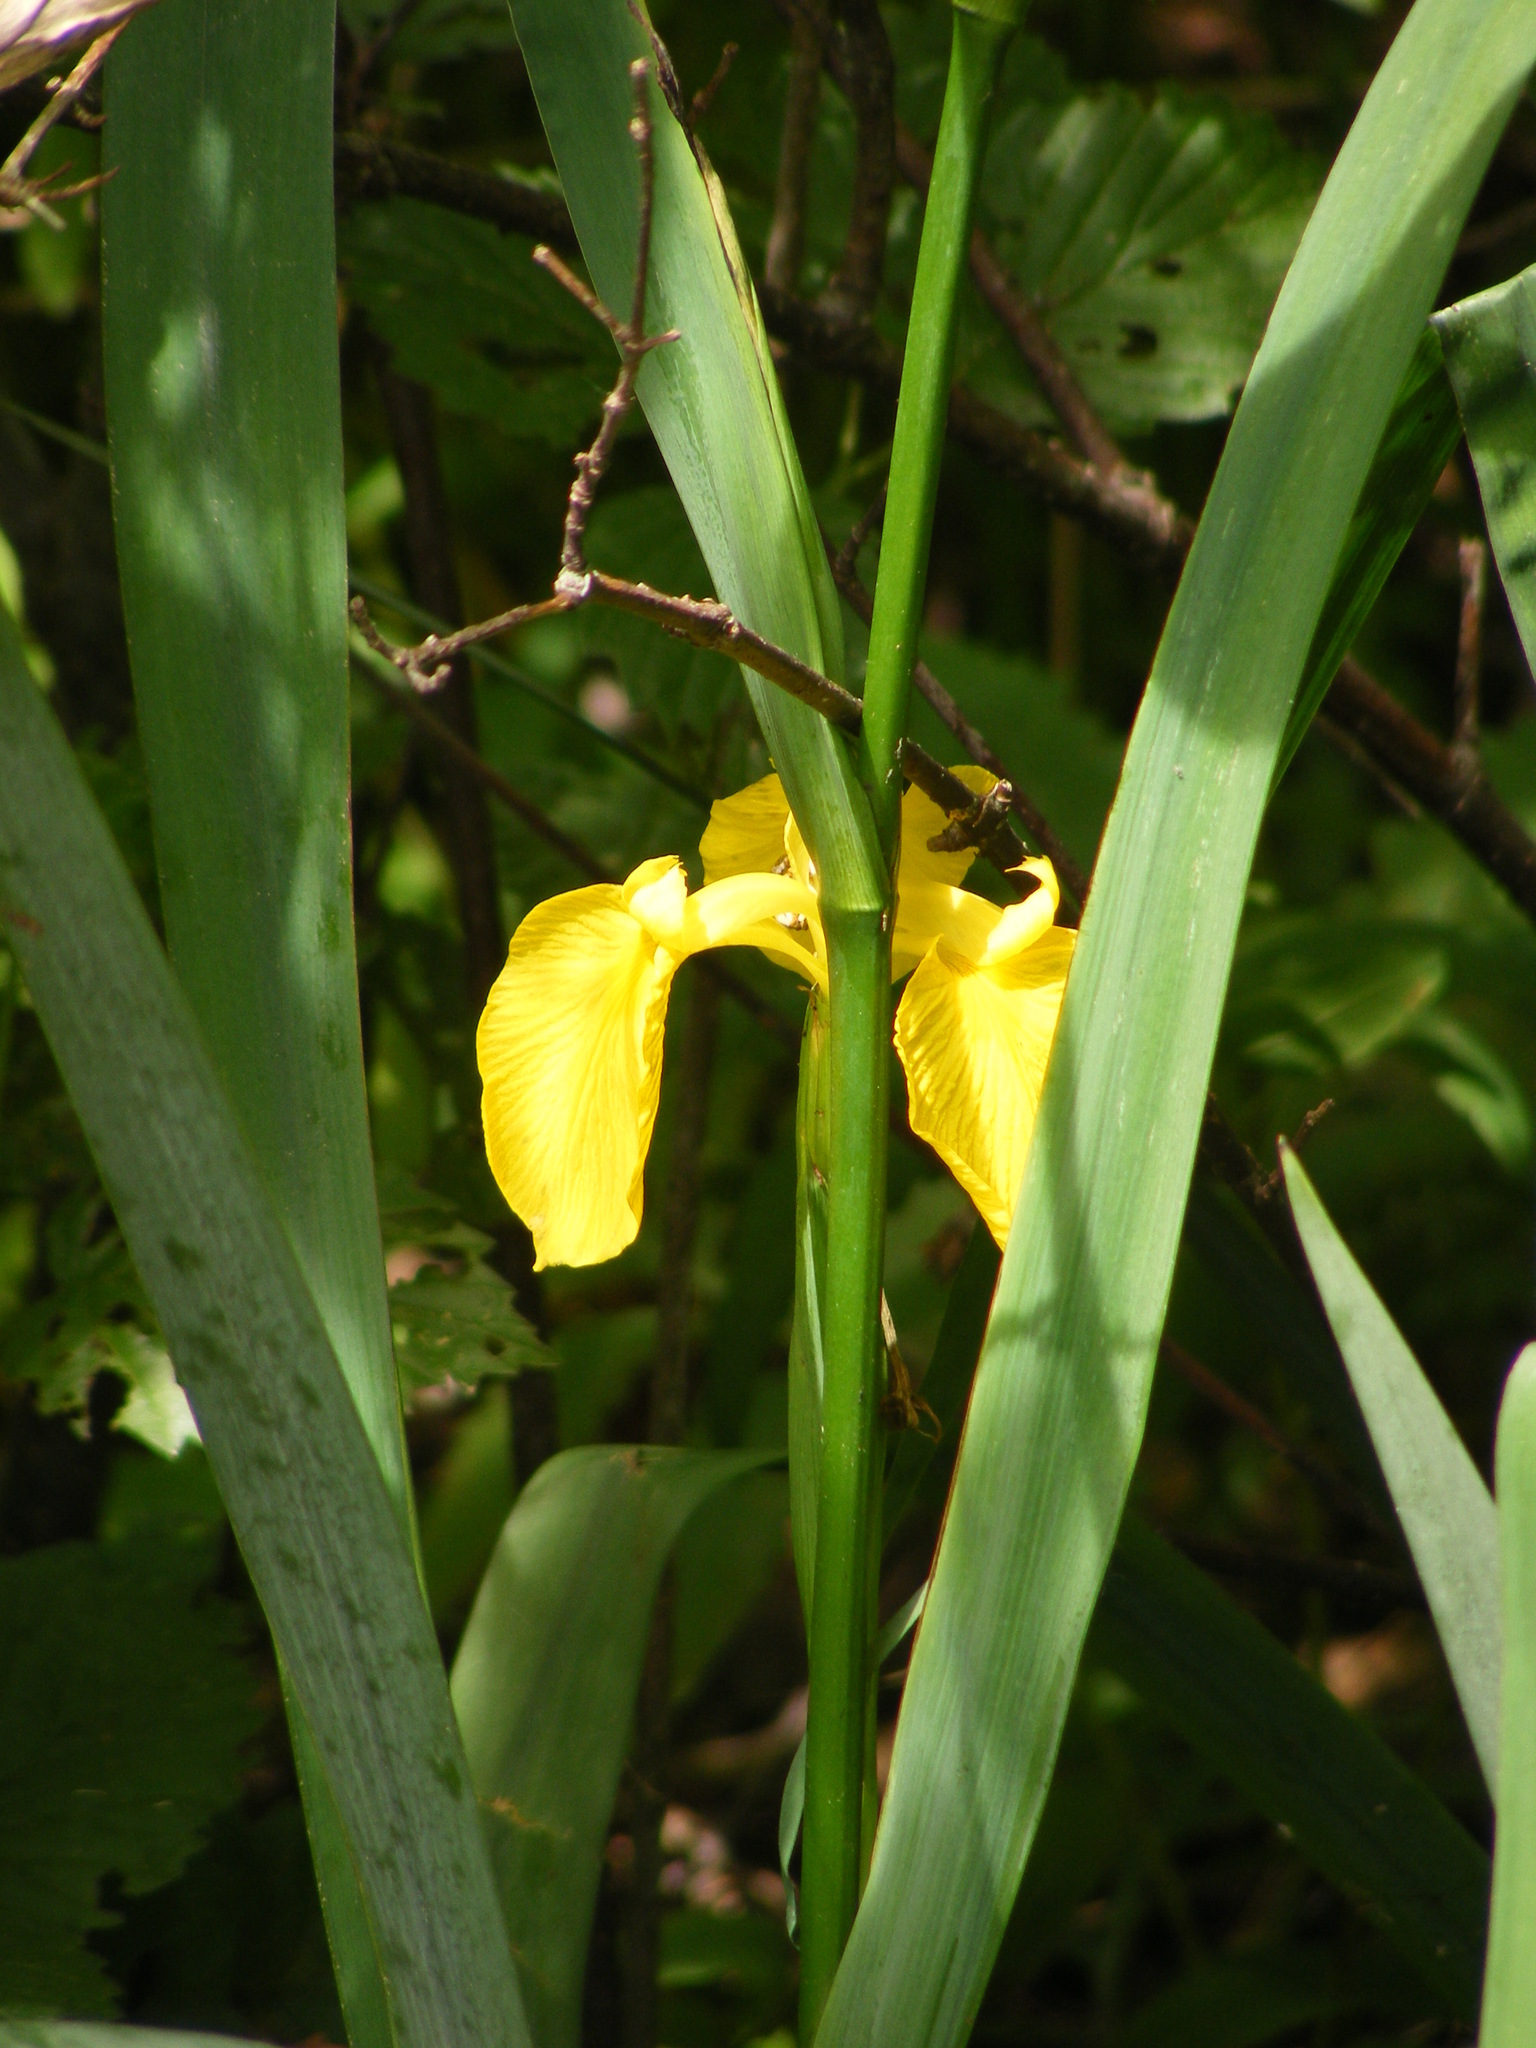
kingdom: Plantae
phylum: Tracheophyta
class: Liliopsida
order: Asparagales
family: Iridaceae
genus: Iris
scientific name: Iris pseudacorus
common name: Yellow flag
